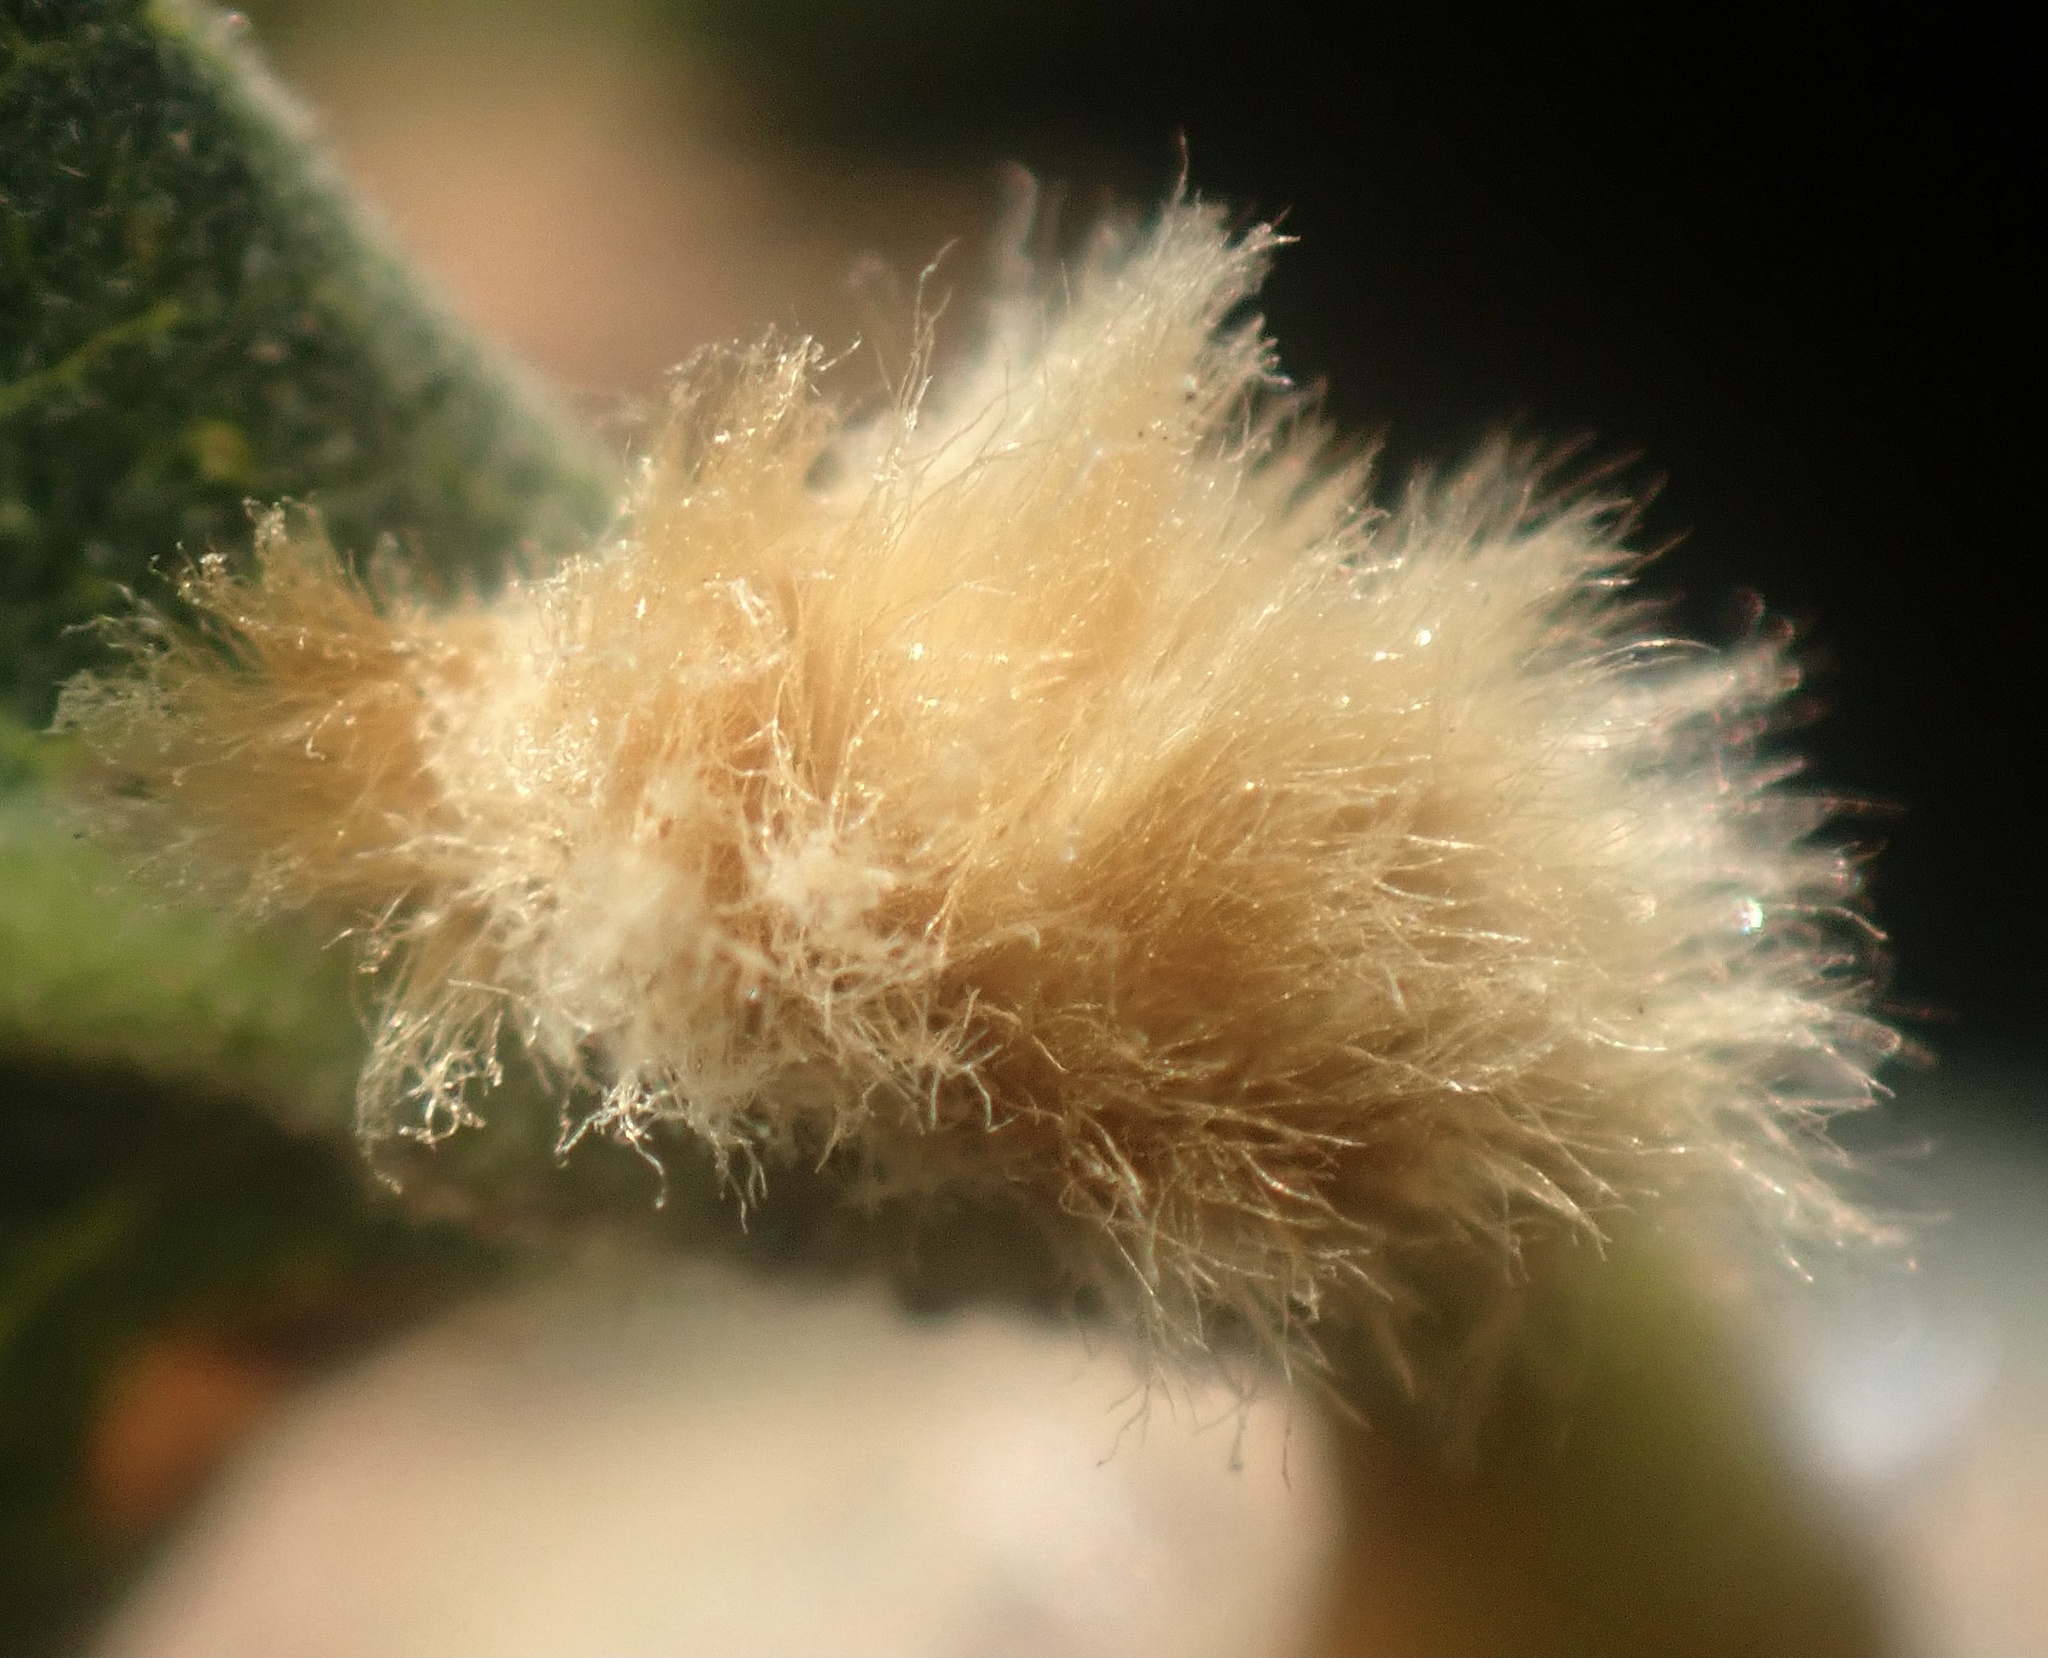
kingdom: Animalia
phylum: Arthropoda
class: Insecta
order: Hymenoptera
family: Cynipidae
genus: Andricus
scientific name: Andricus Druon fullawayi
